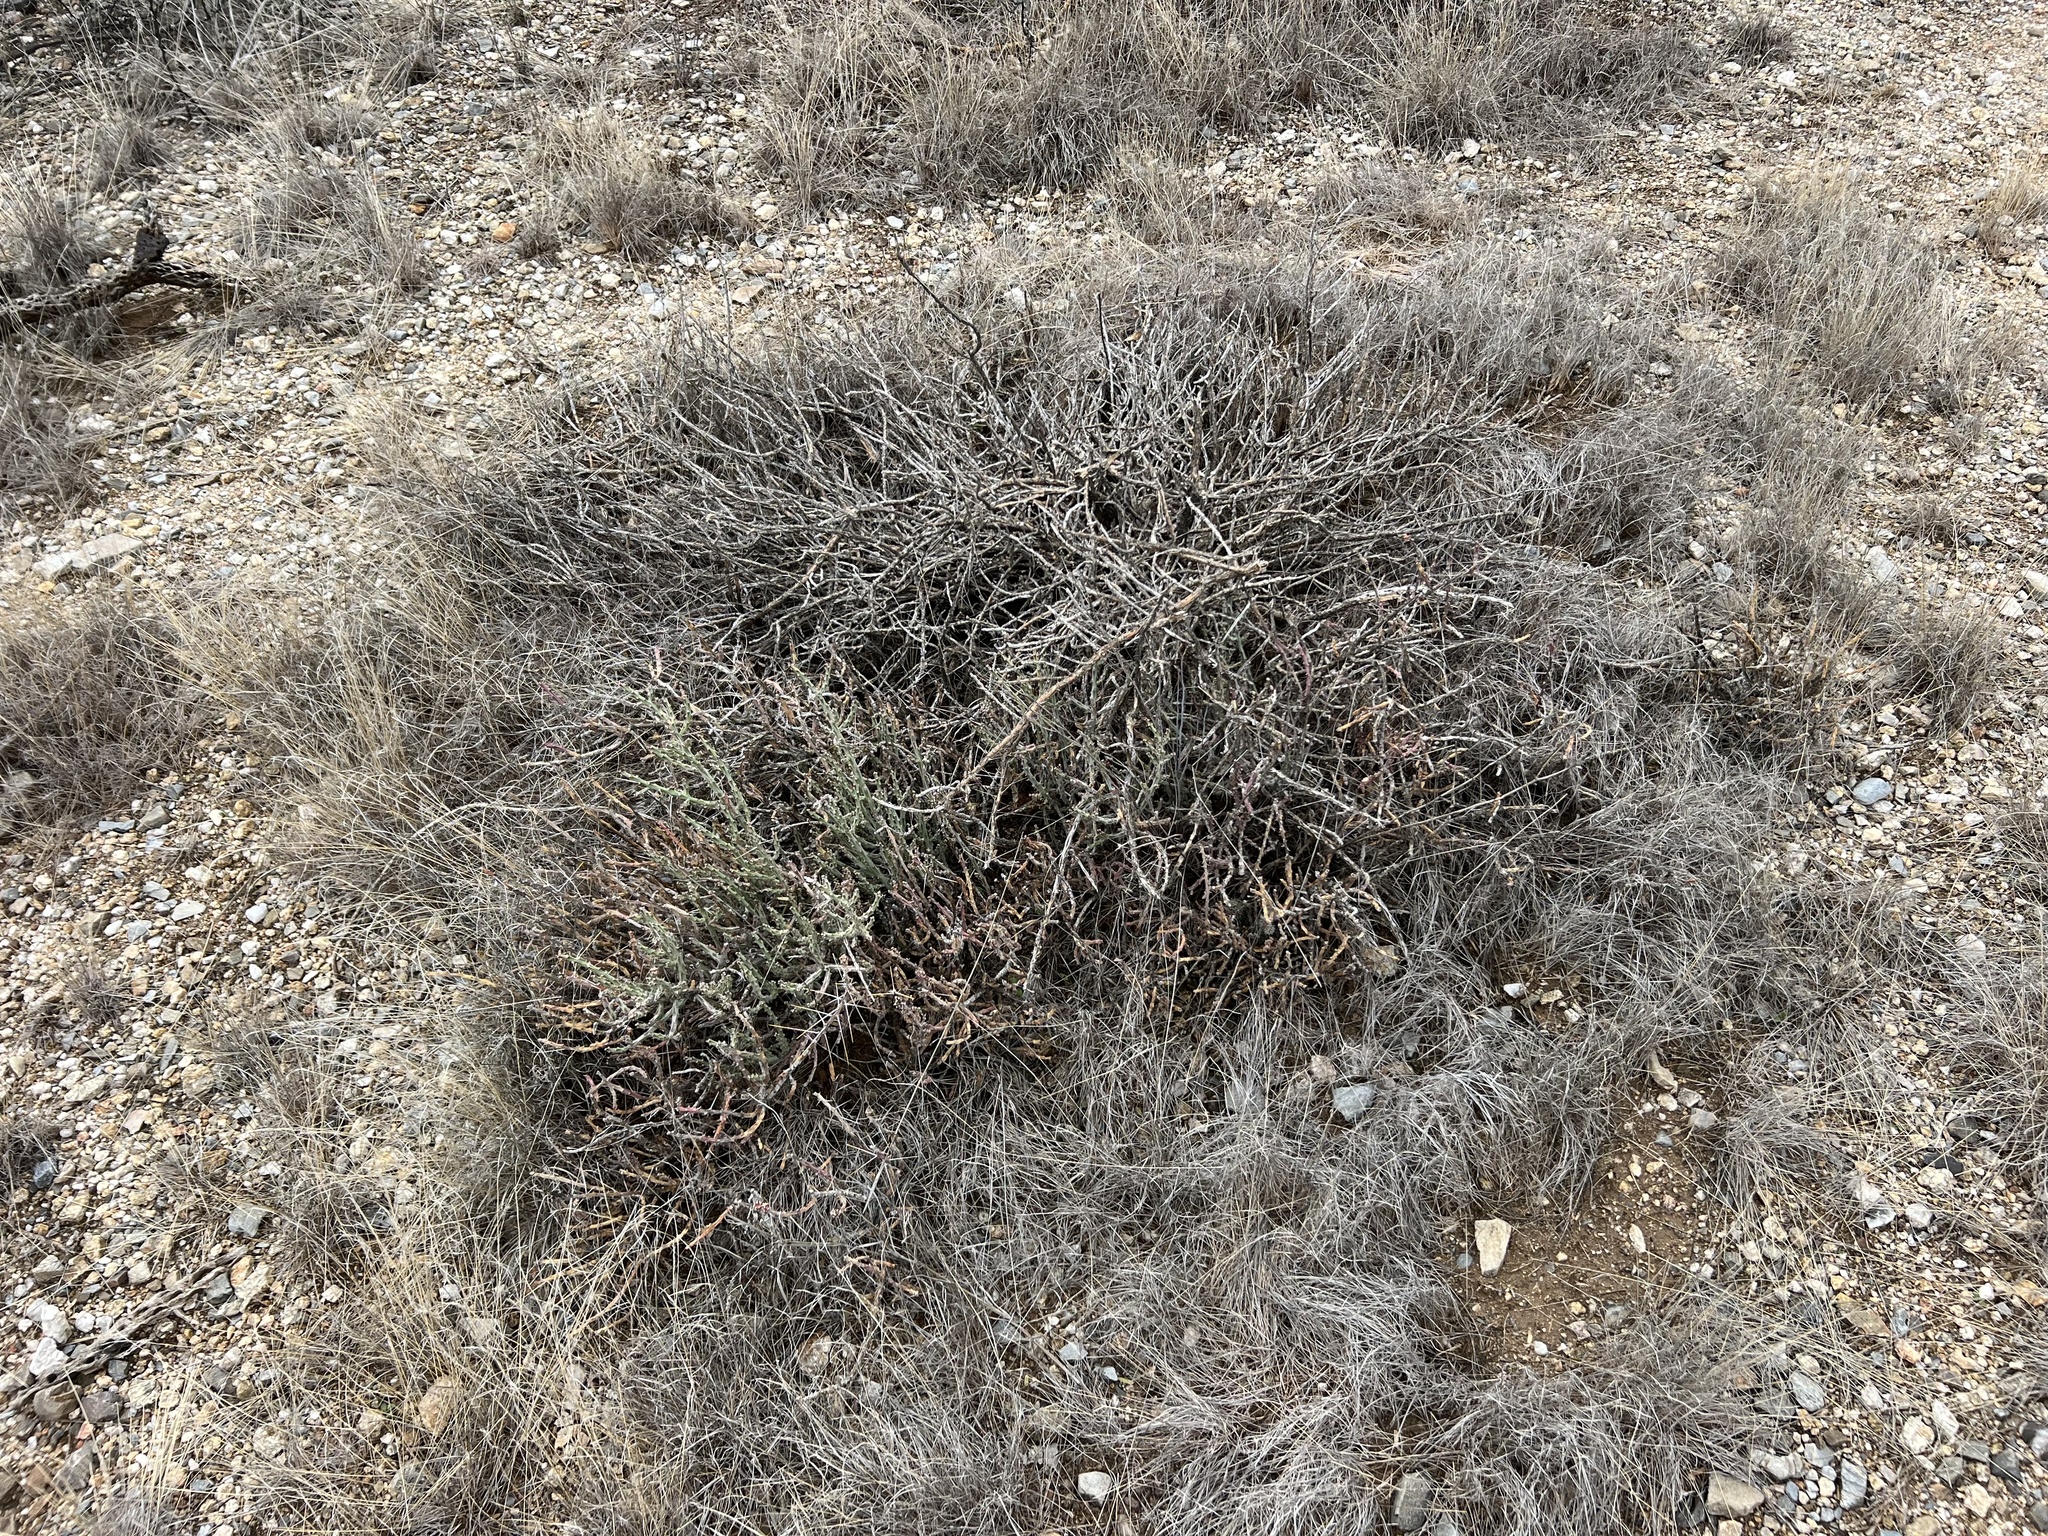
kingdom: Plantae
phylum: Tracheophyta
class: Magnoliopsida
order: Caryophyllales
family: Cactaceae
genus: Cylindropuntia
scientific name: Cylindropuntia leptocaulis
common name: Christmas cactus
